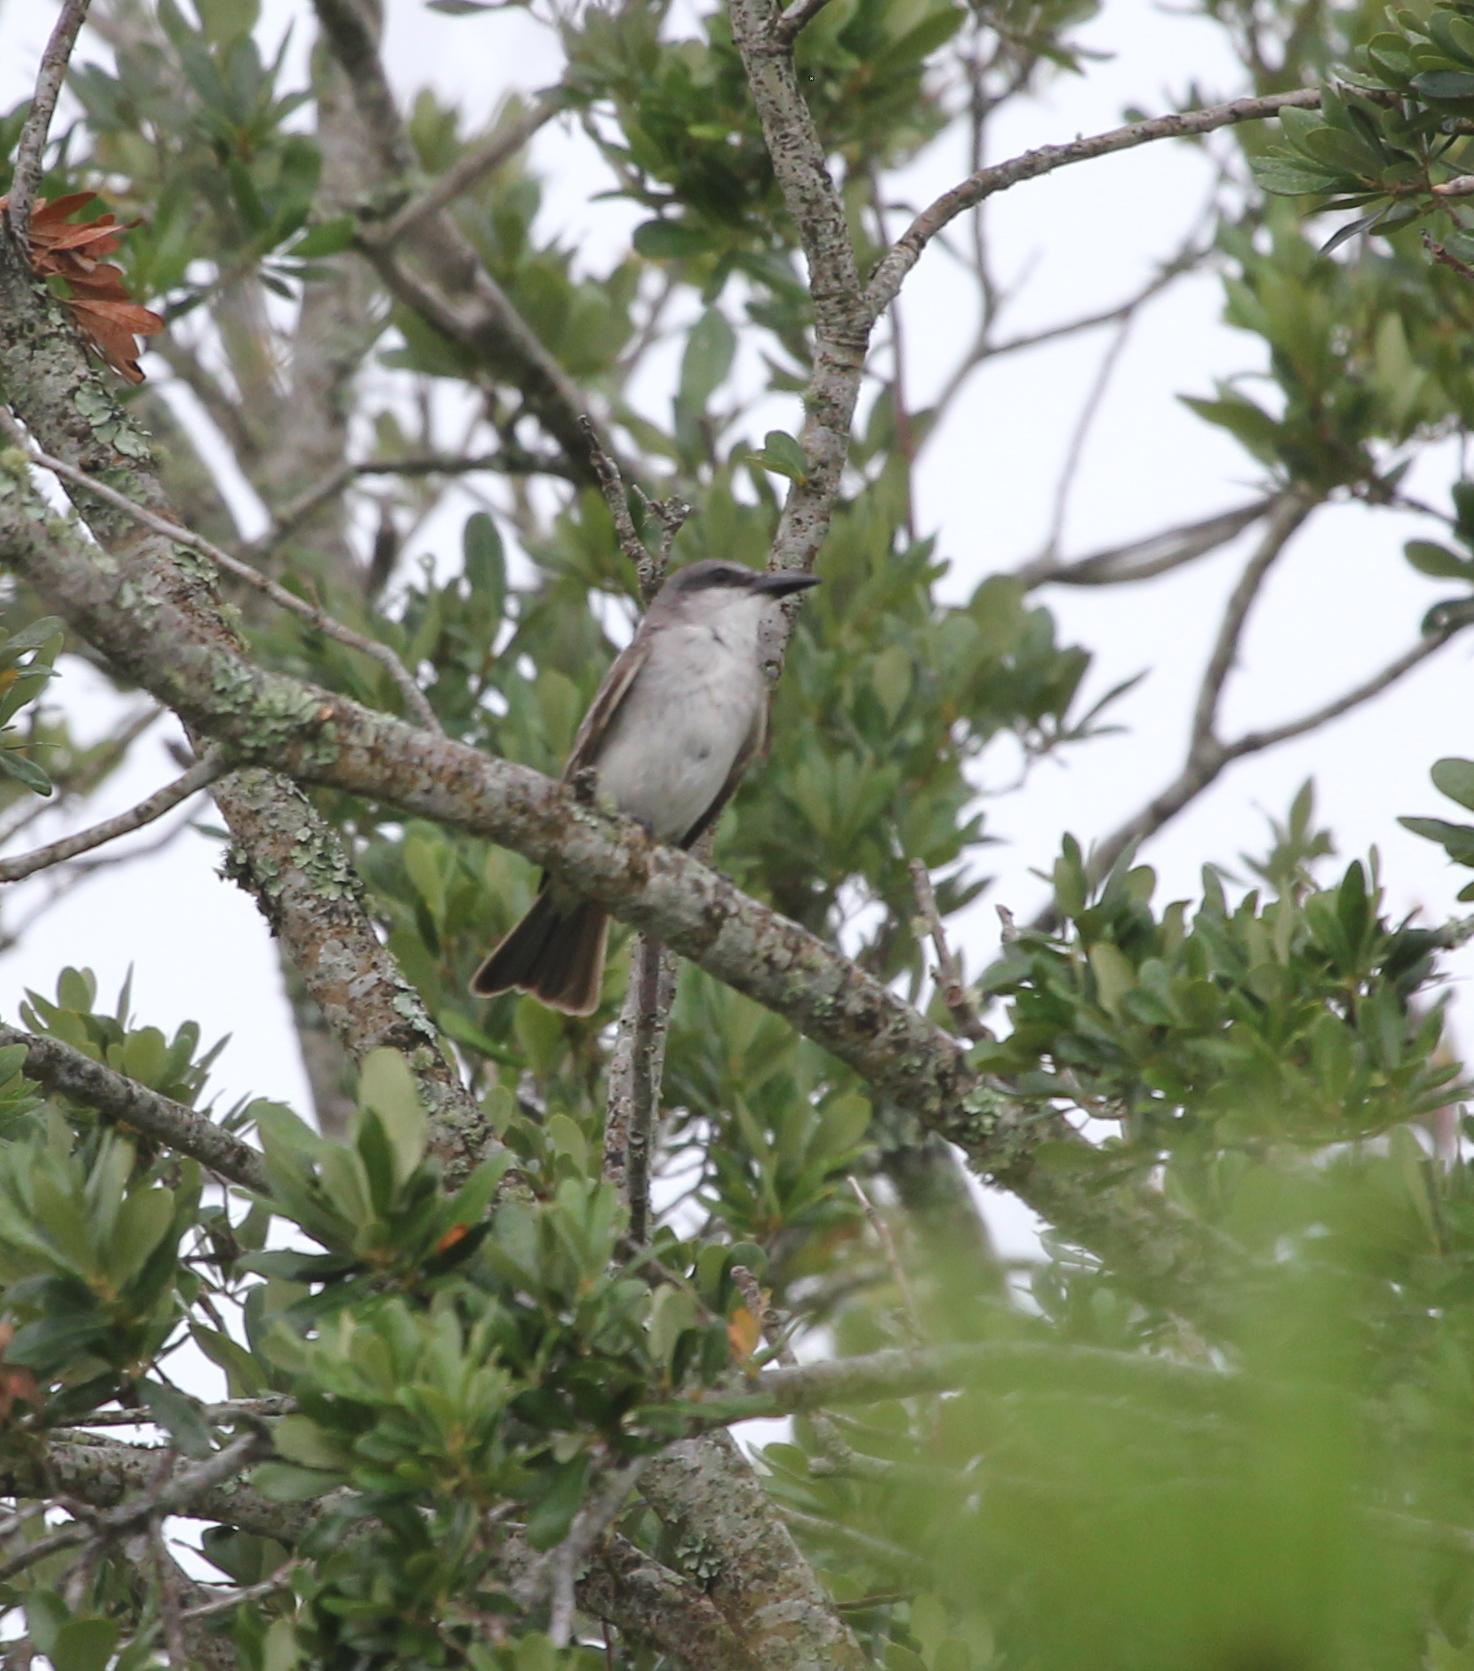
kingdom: Animalia
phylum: Chordata
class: Aves
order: Passeriformes
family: Tyrannidae
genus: Tyrannus
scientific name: Tyrannus dominicensis
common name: Gray kingbird
